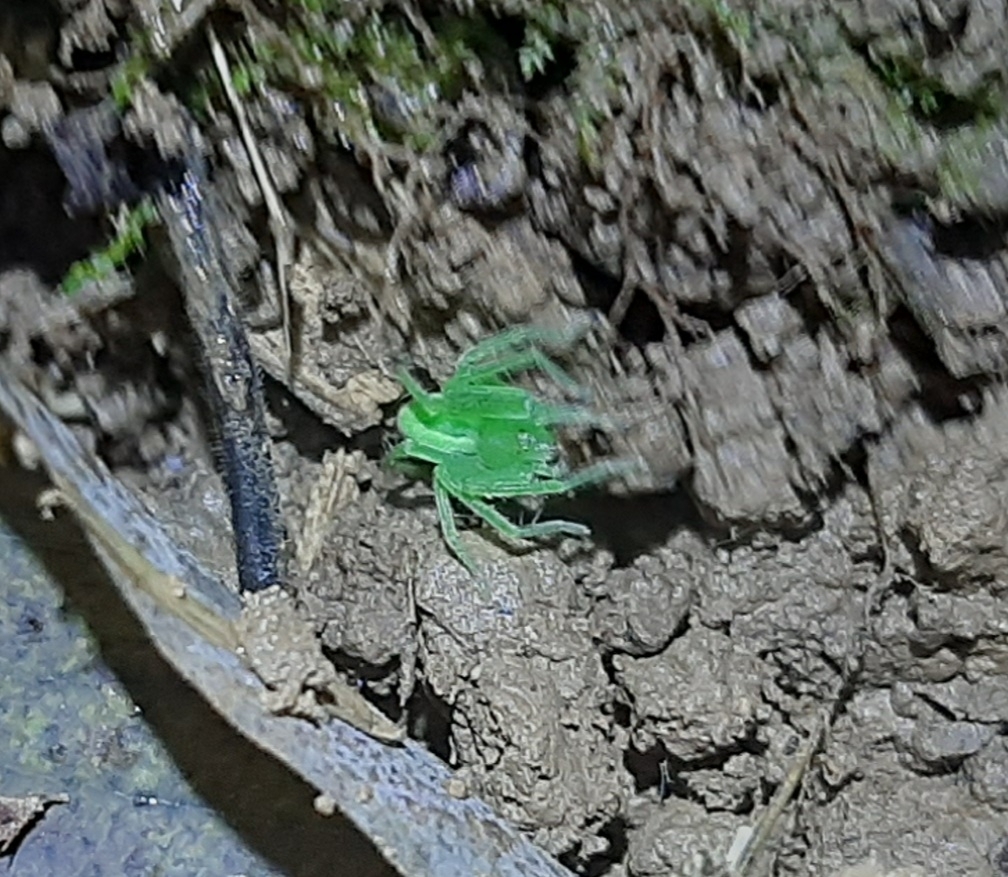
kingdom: Animalia
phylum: Arthropoda
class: Arachnida
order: Araneae
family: Sparassidae
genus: Micrommata
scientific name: Micrommata virescens
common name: Green spider
